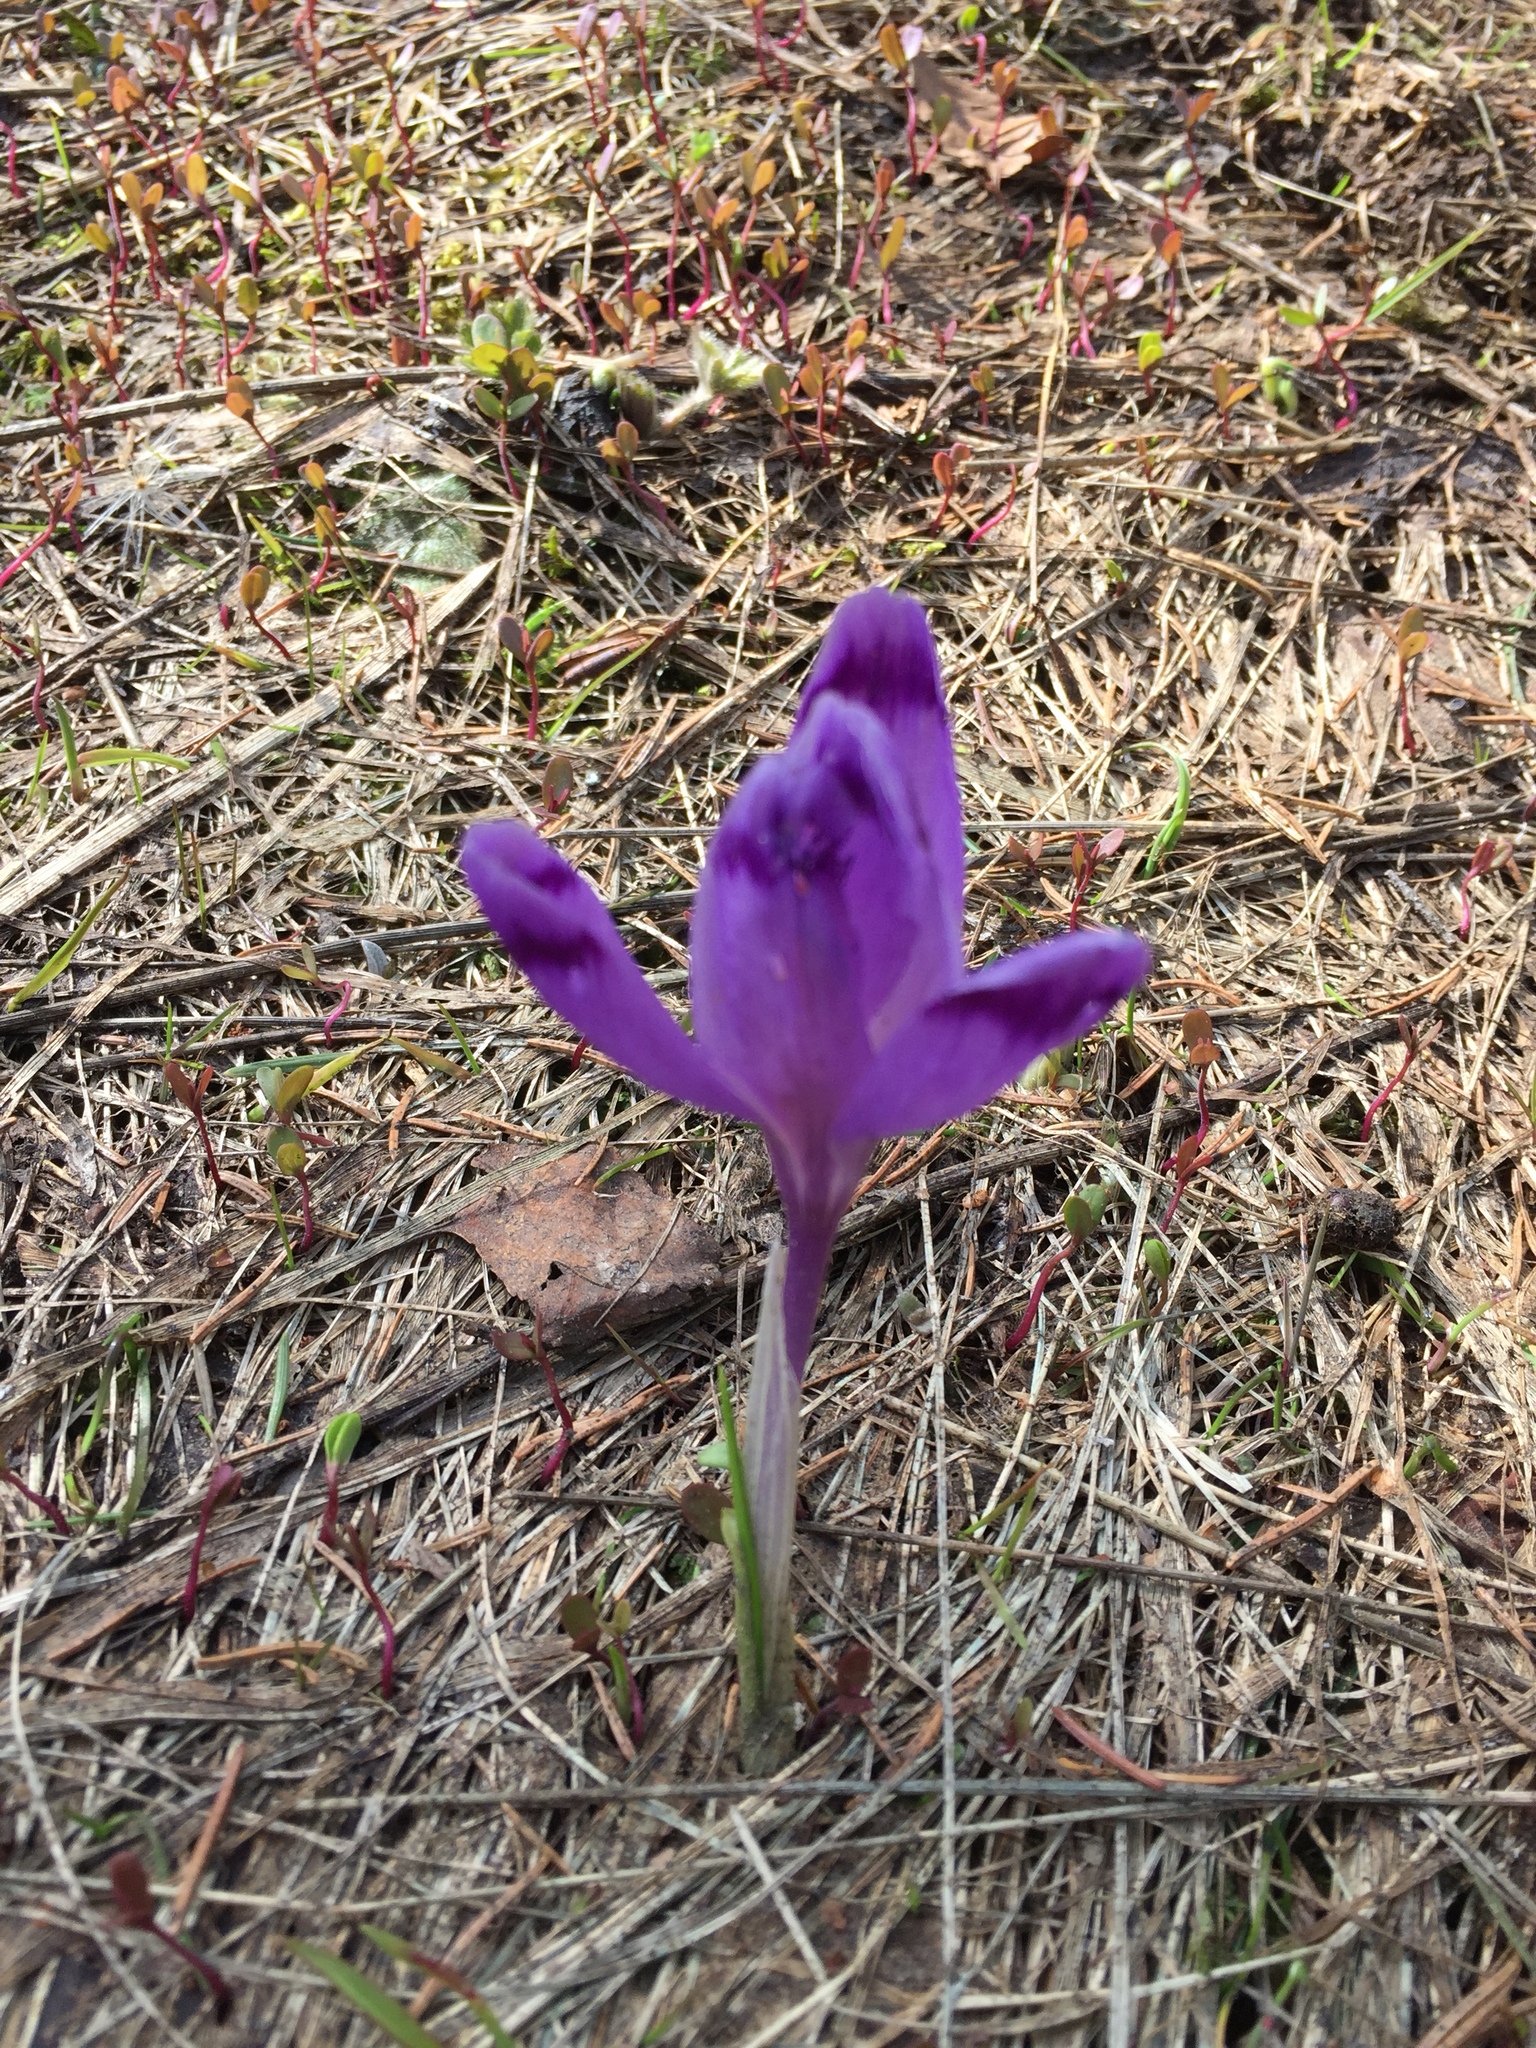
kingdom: Plantae
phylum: Tracheophyta
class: Liliopsida
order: Asparagales
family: Iridaceae
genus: Crocus
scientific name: Crocus heuffelianus
